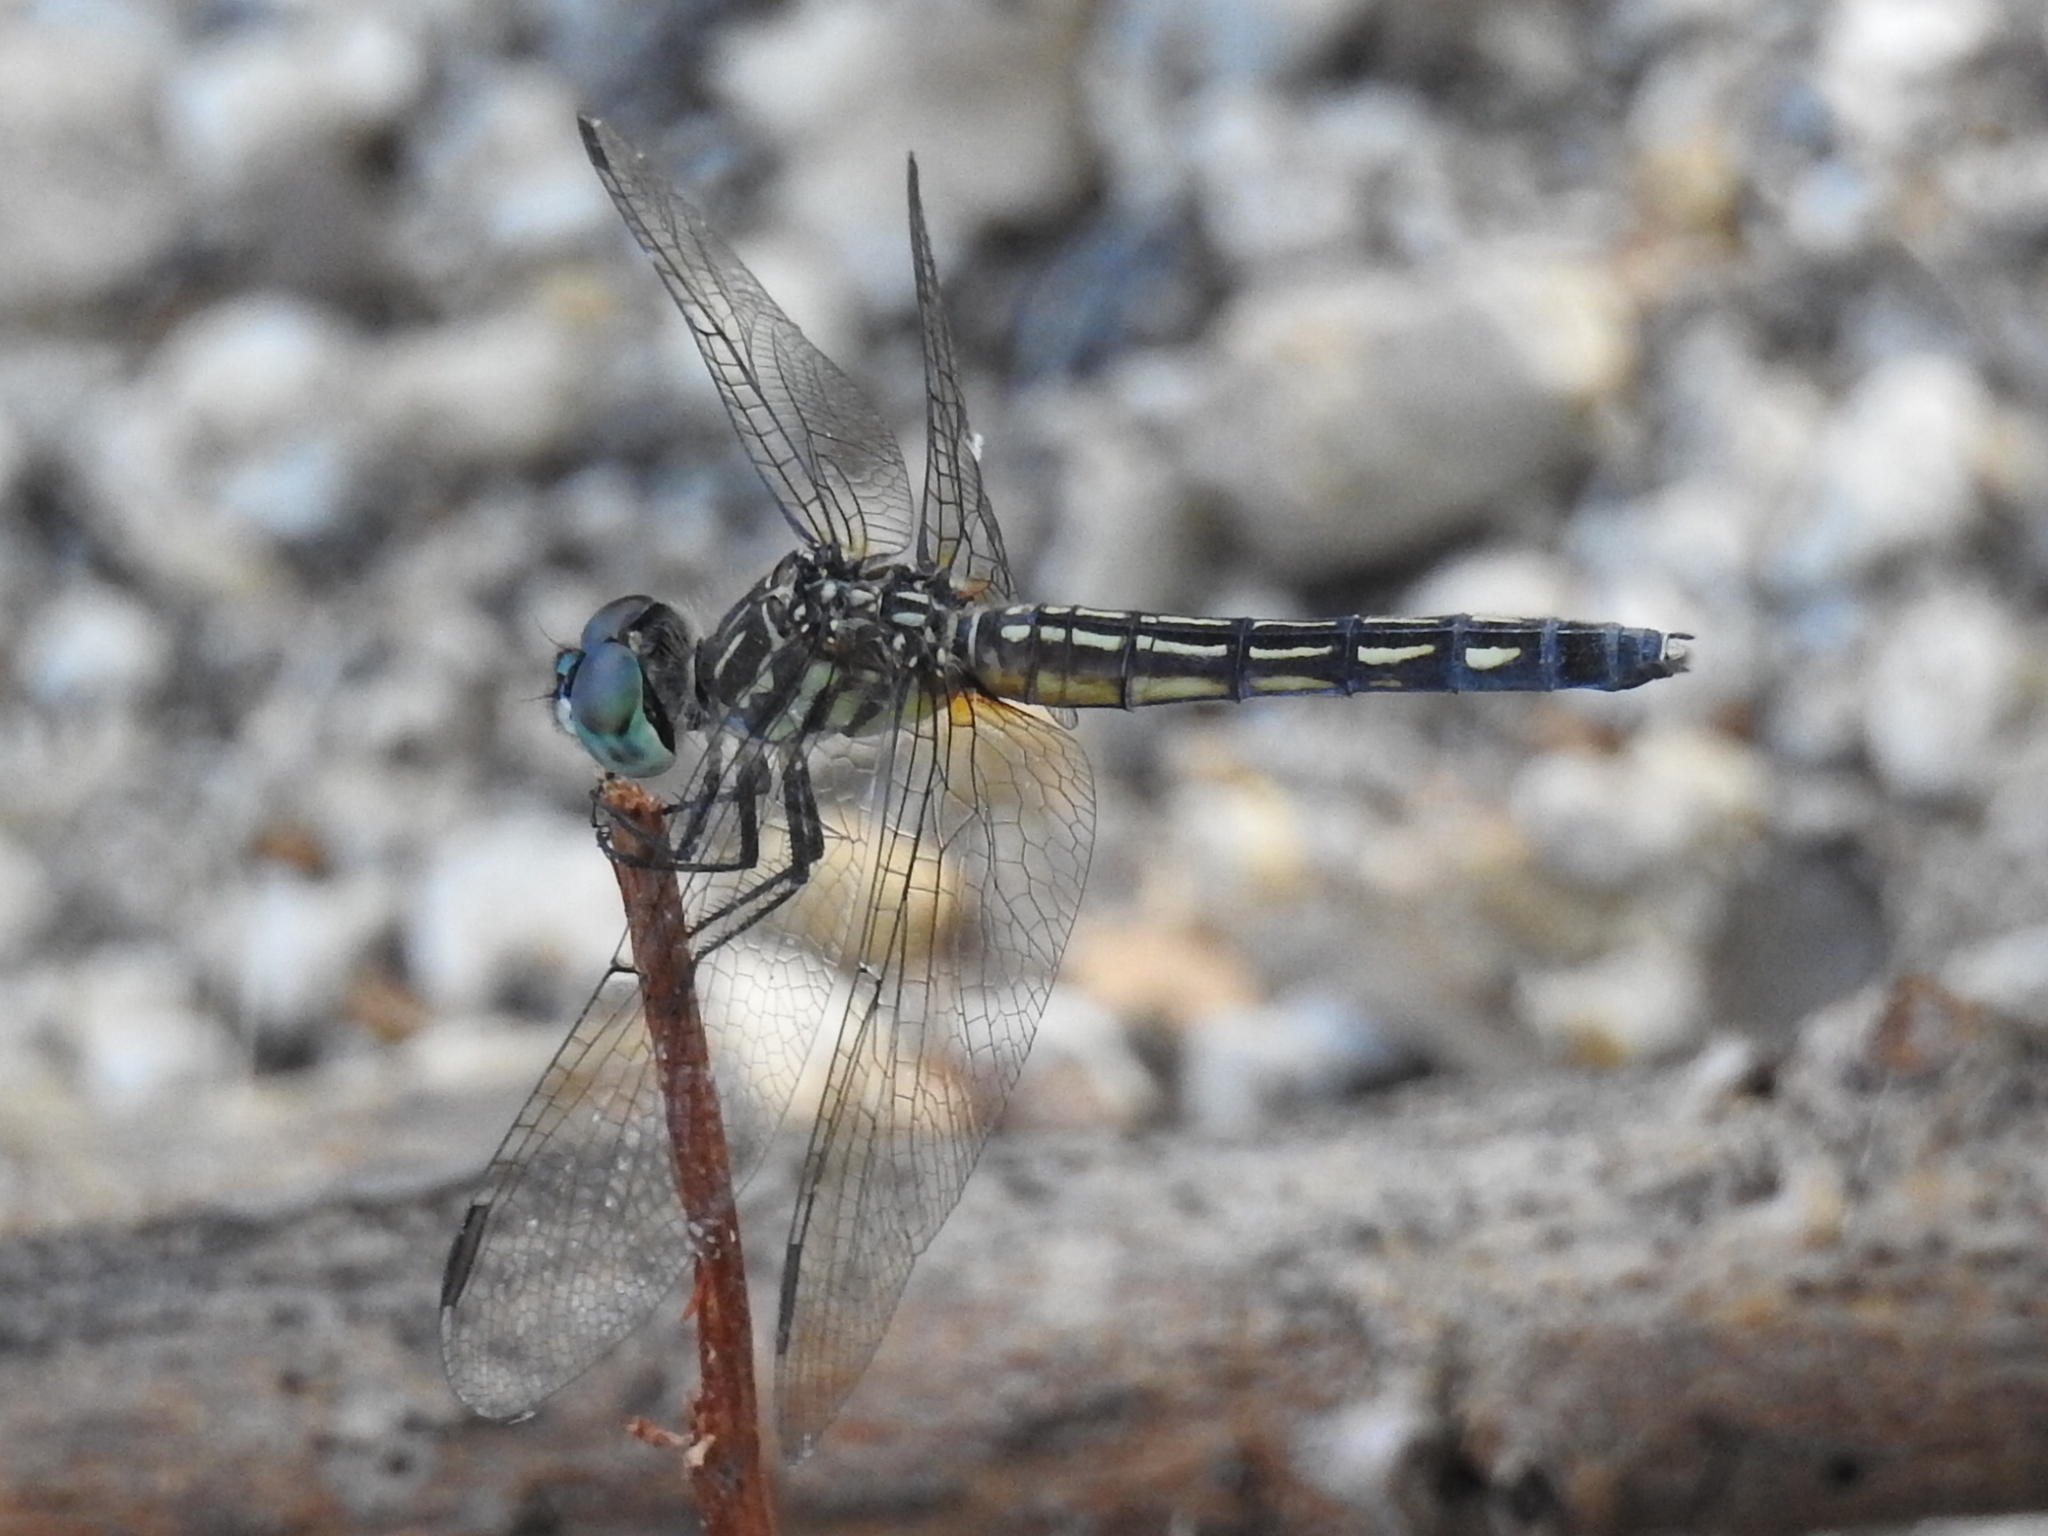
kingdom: Animalia
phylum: Arthropoda
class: Insecta
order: Odonata
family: Libellulidae
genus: Pachydiplax
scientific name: Pachydiplax longipennis
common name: Blue dasher
